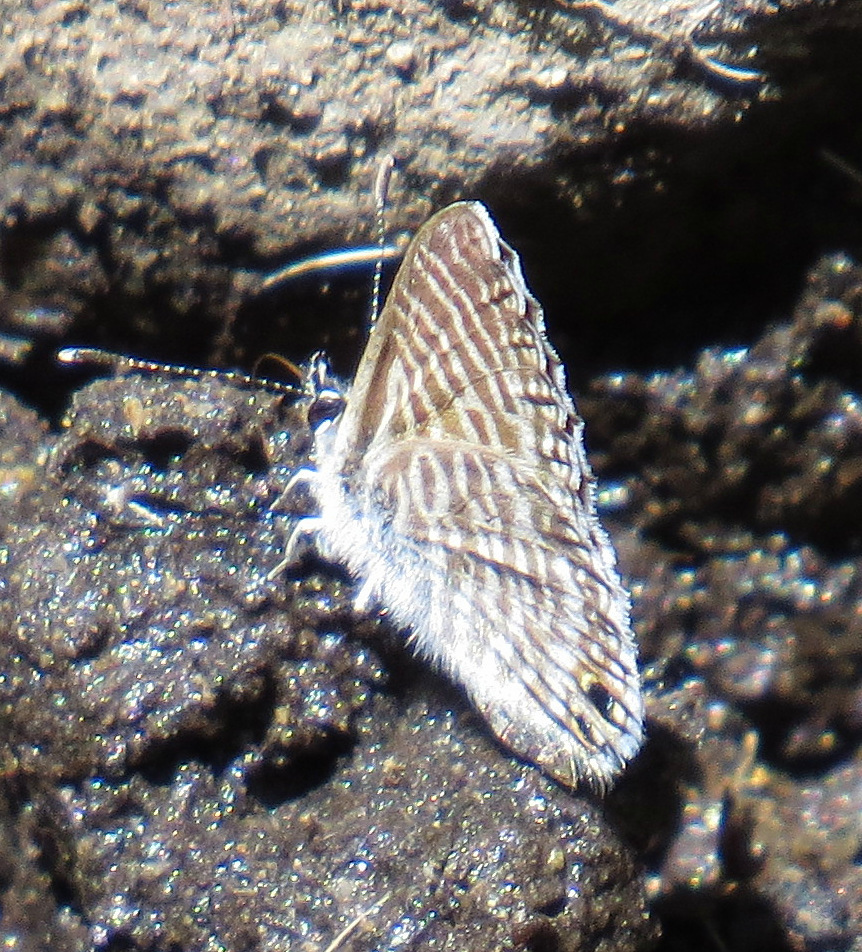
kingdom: Animalia
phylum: Arthropoda
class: Insecta
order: Lepidoptera
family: Lycaenidae
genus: Leptotes
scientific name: Leptotes marina
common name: Marine blue
